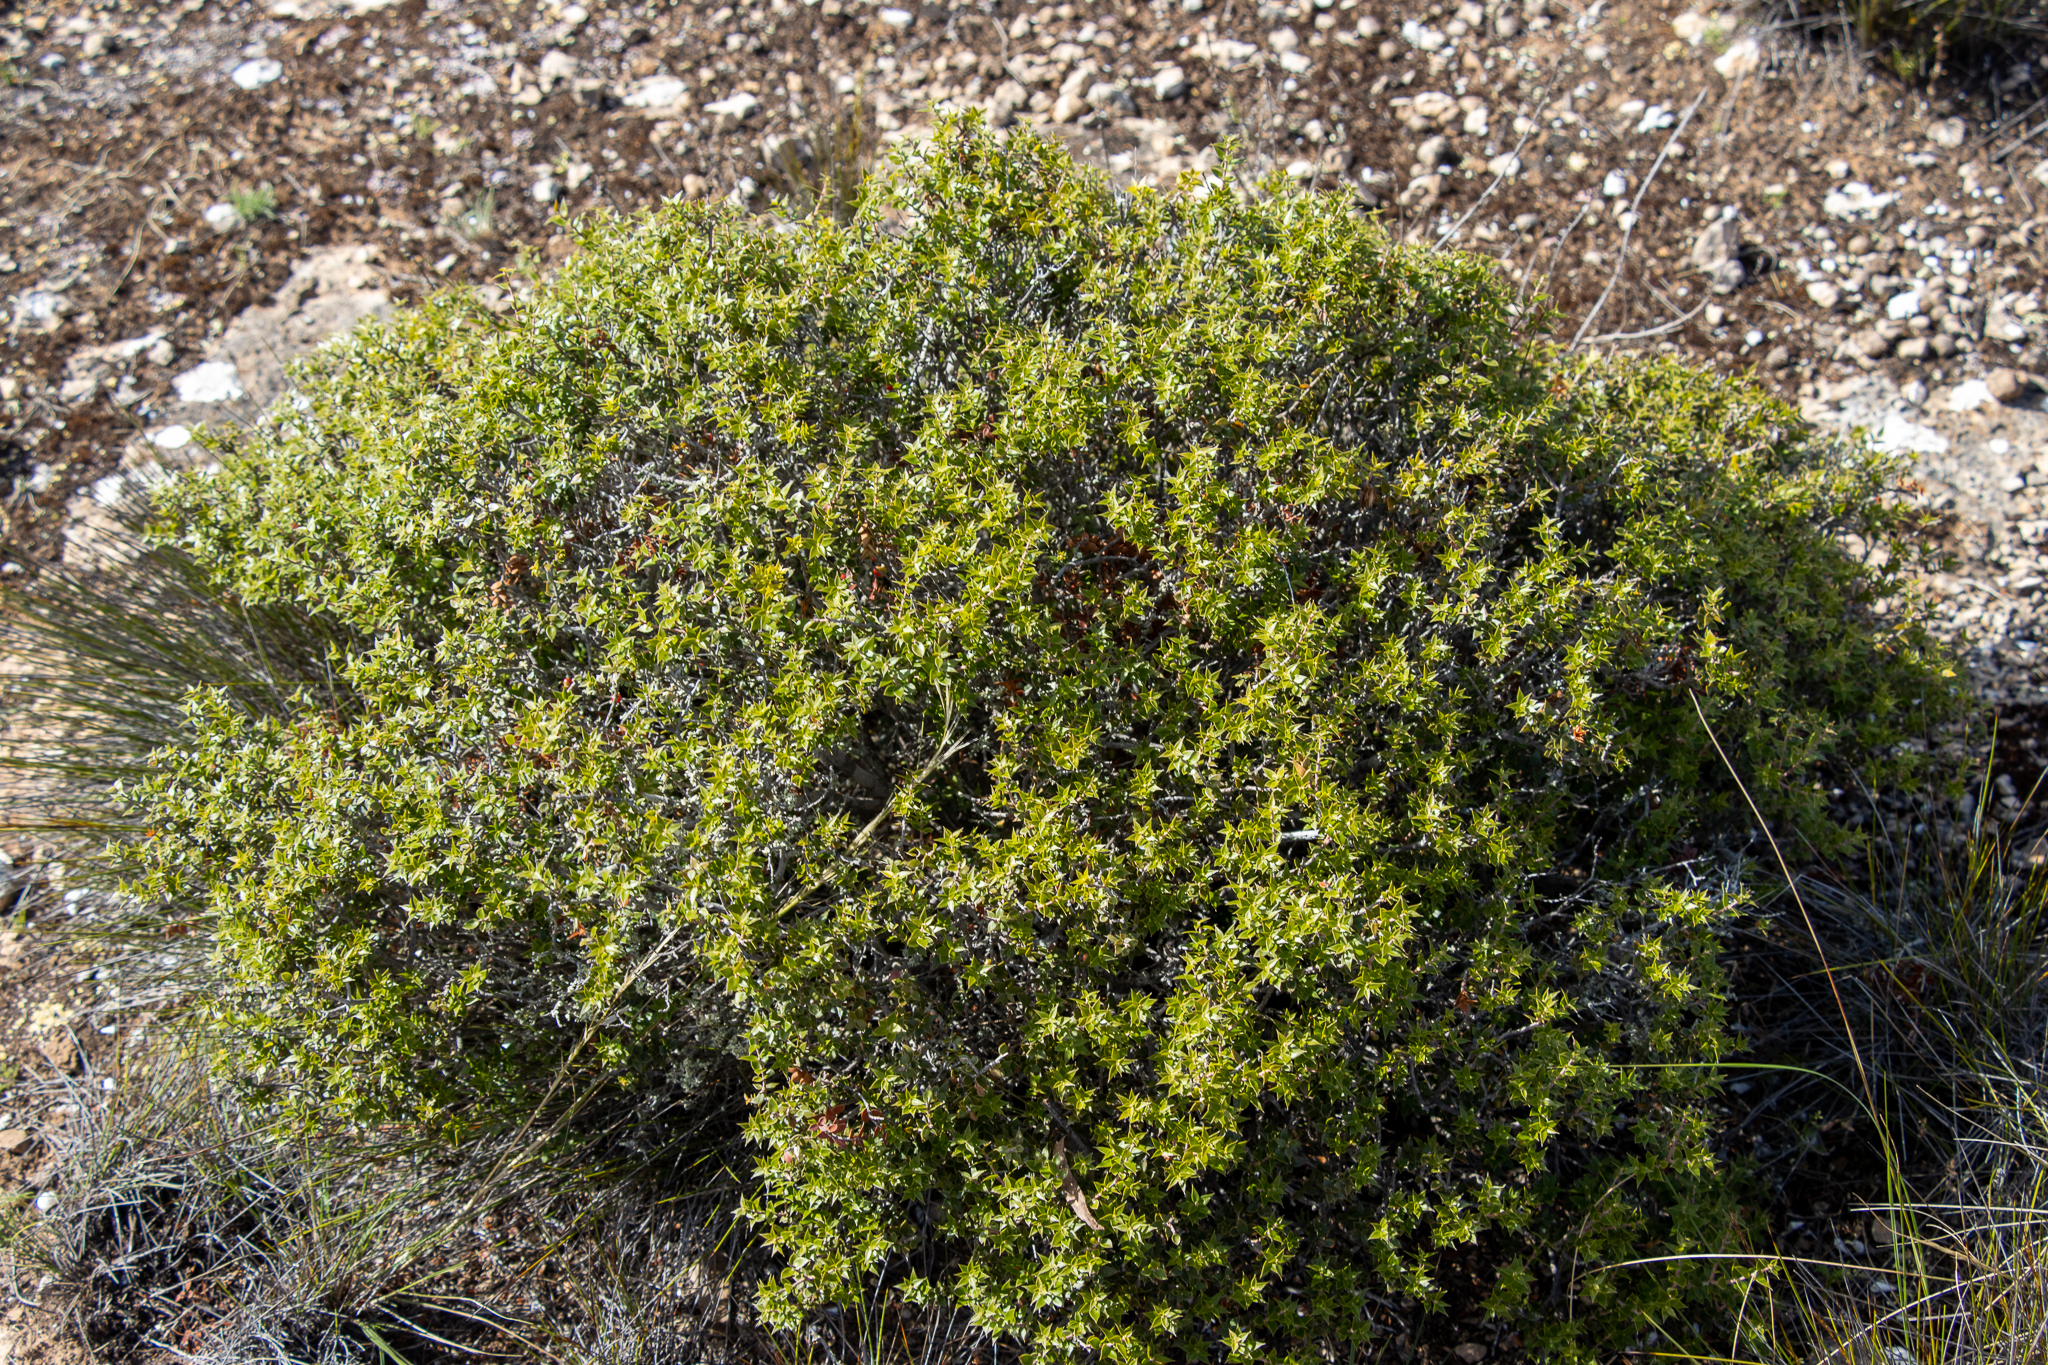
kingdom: Plantae
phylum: Tracheophyta
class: Magnoliopsida
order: Ericales
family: Ericaceae
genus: Acrotriche
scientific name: Acrotriche patula
